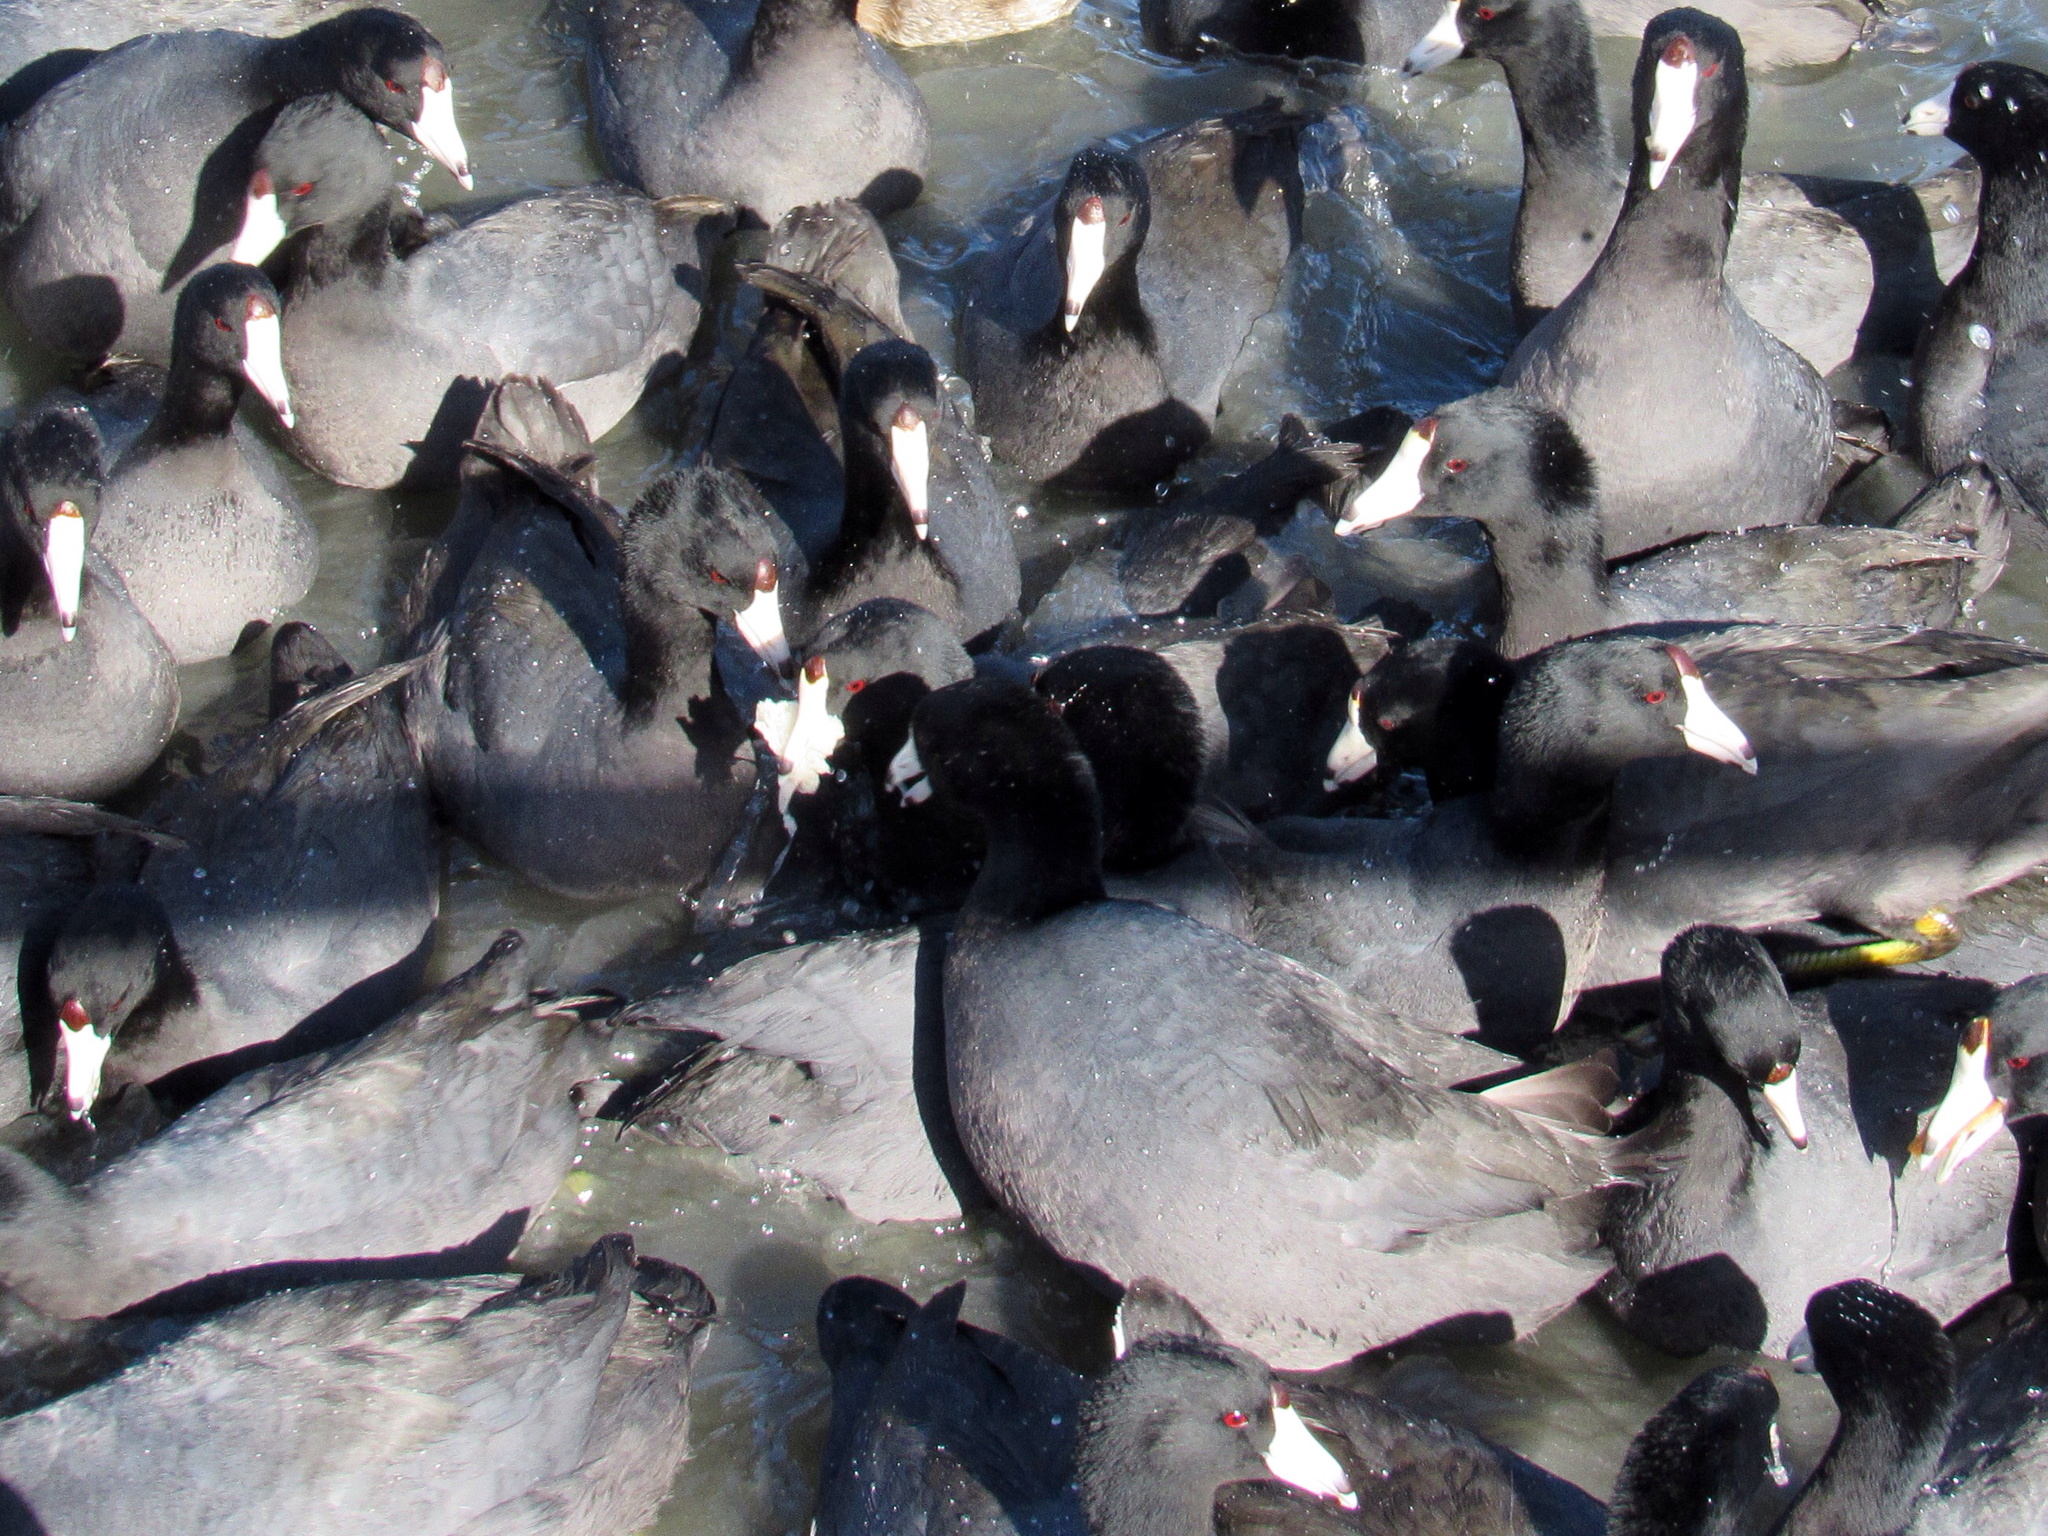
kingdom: Animalia
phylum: Chordata
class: Aves
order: Gruiformes
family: Rallidae
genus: Fulica
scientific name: Fulica americana
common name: American coot
